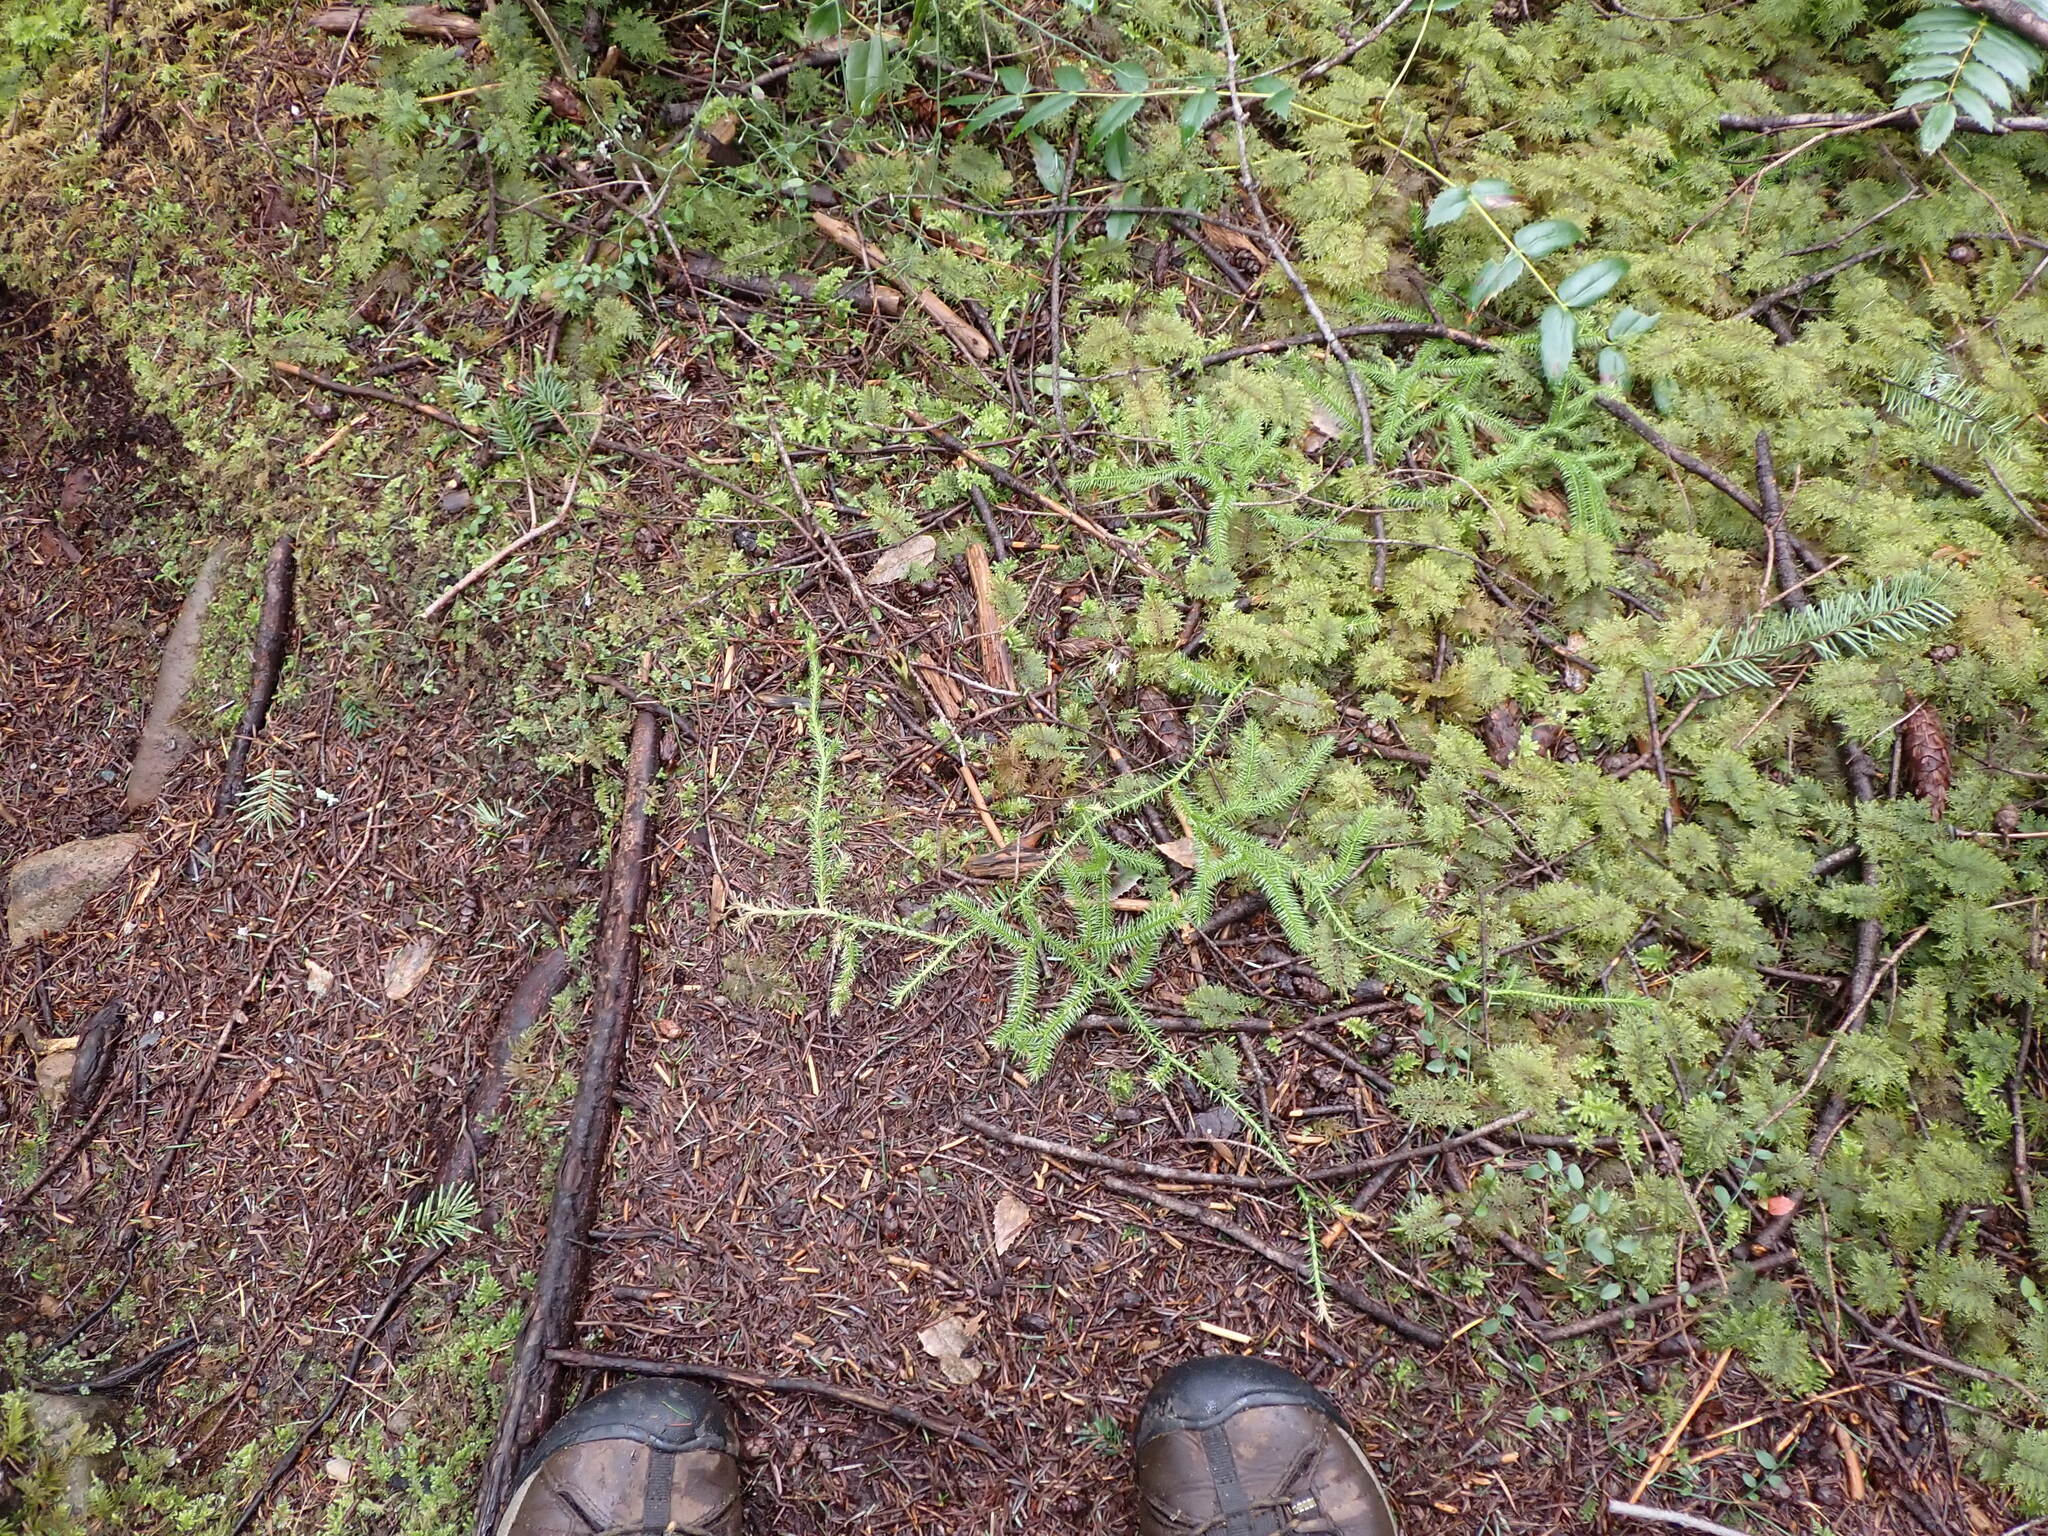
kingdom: Plantae
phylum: Tracheophyta
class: Lycopodiopsida
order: Lycopodiales
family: Lycopodiaceae
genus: Lycopodium
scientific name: Lycopodium clavatum
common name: Stag's-horn clubmoss
